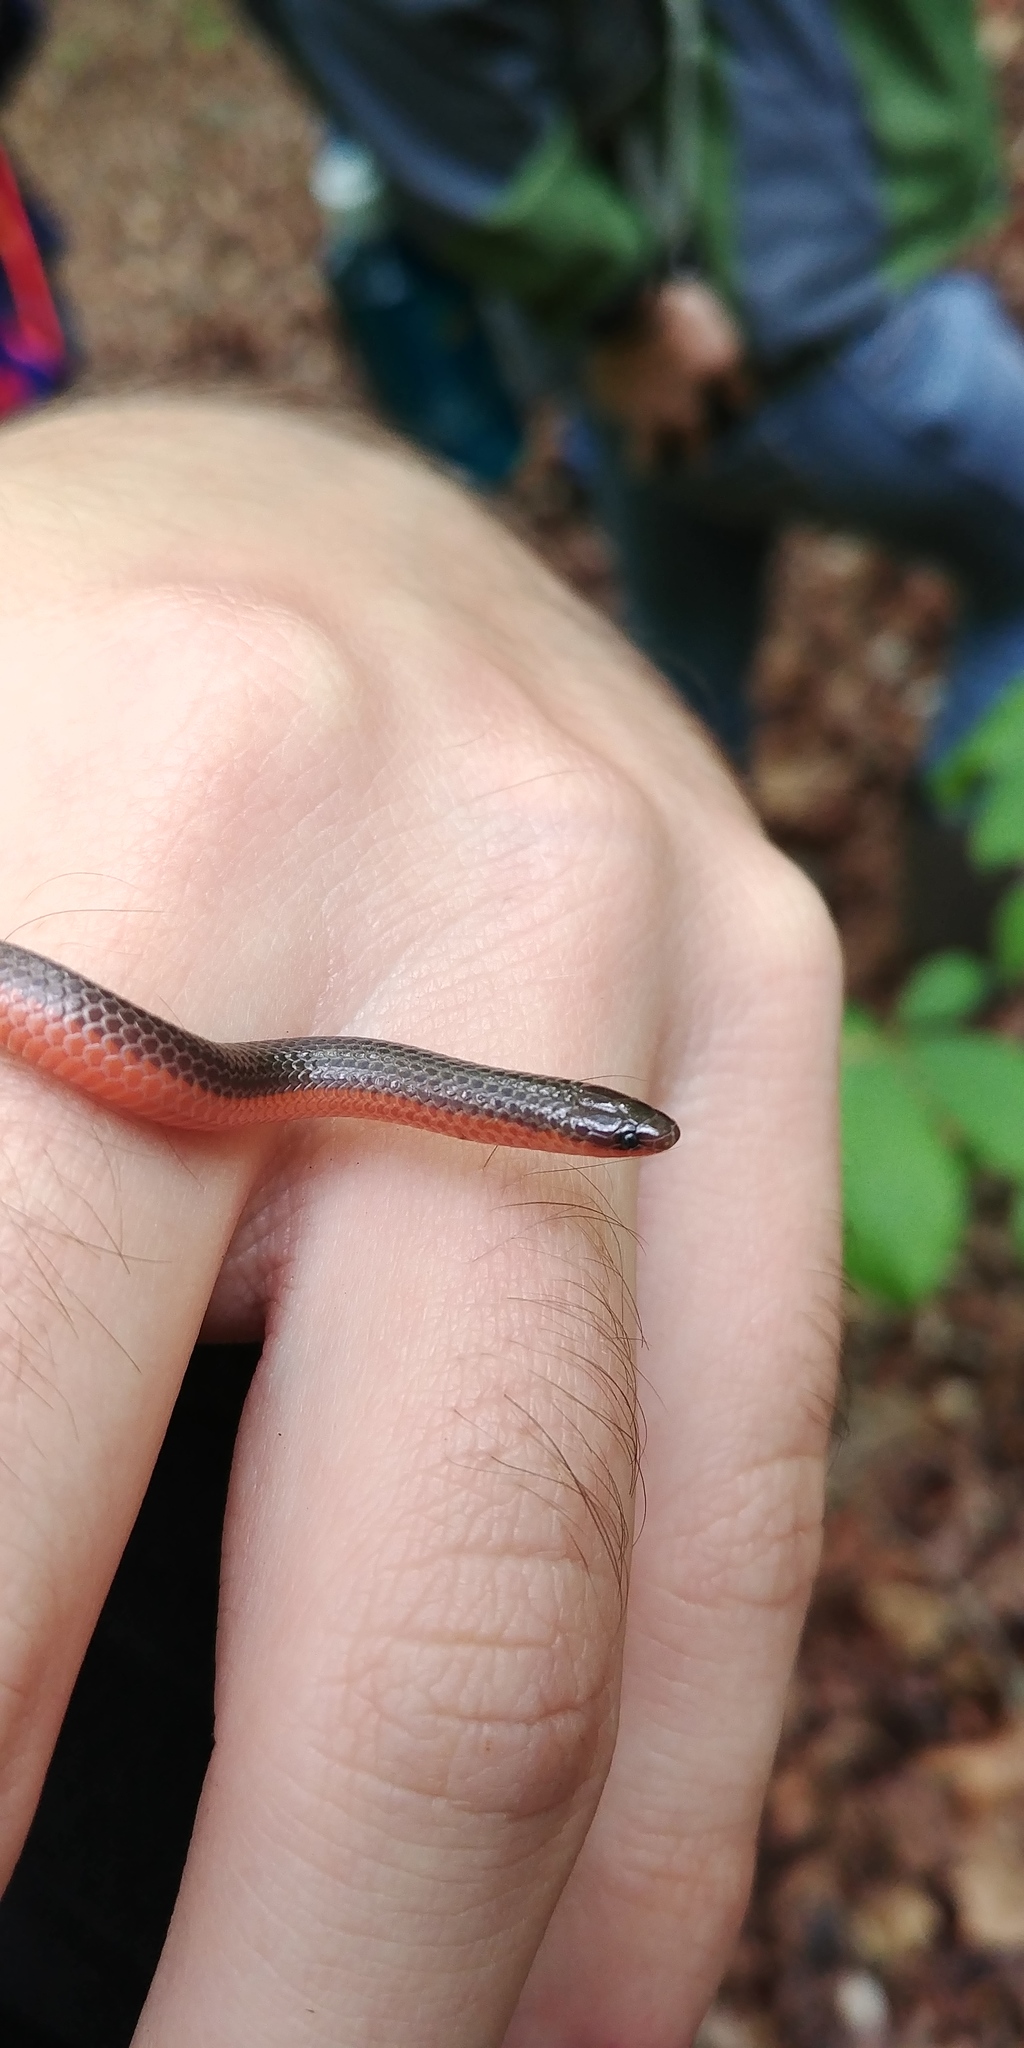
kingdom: Animalia
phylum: Chordata
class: Squamata
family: Colubridae
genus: Carphophis
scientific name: Carphophis amoenus
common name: Eastern worm snake
